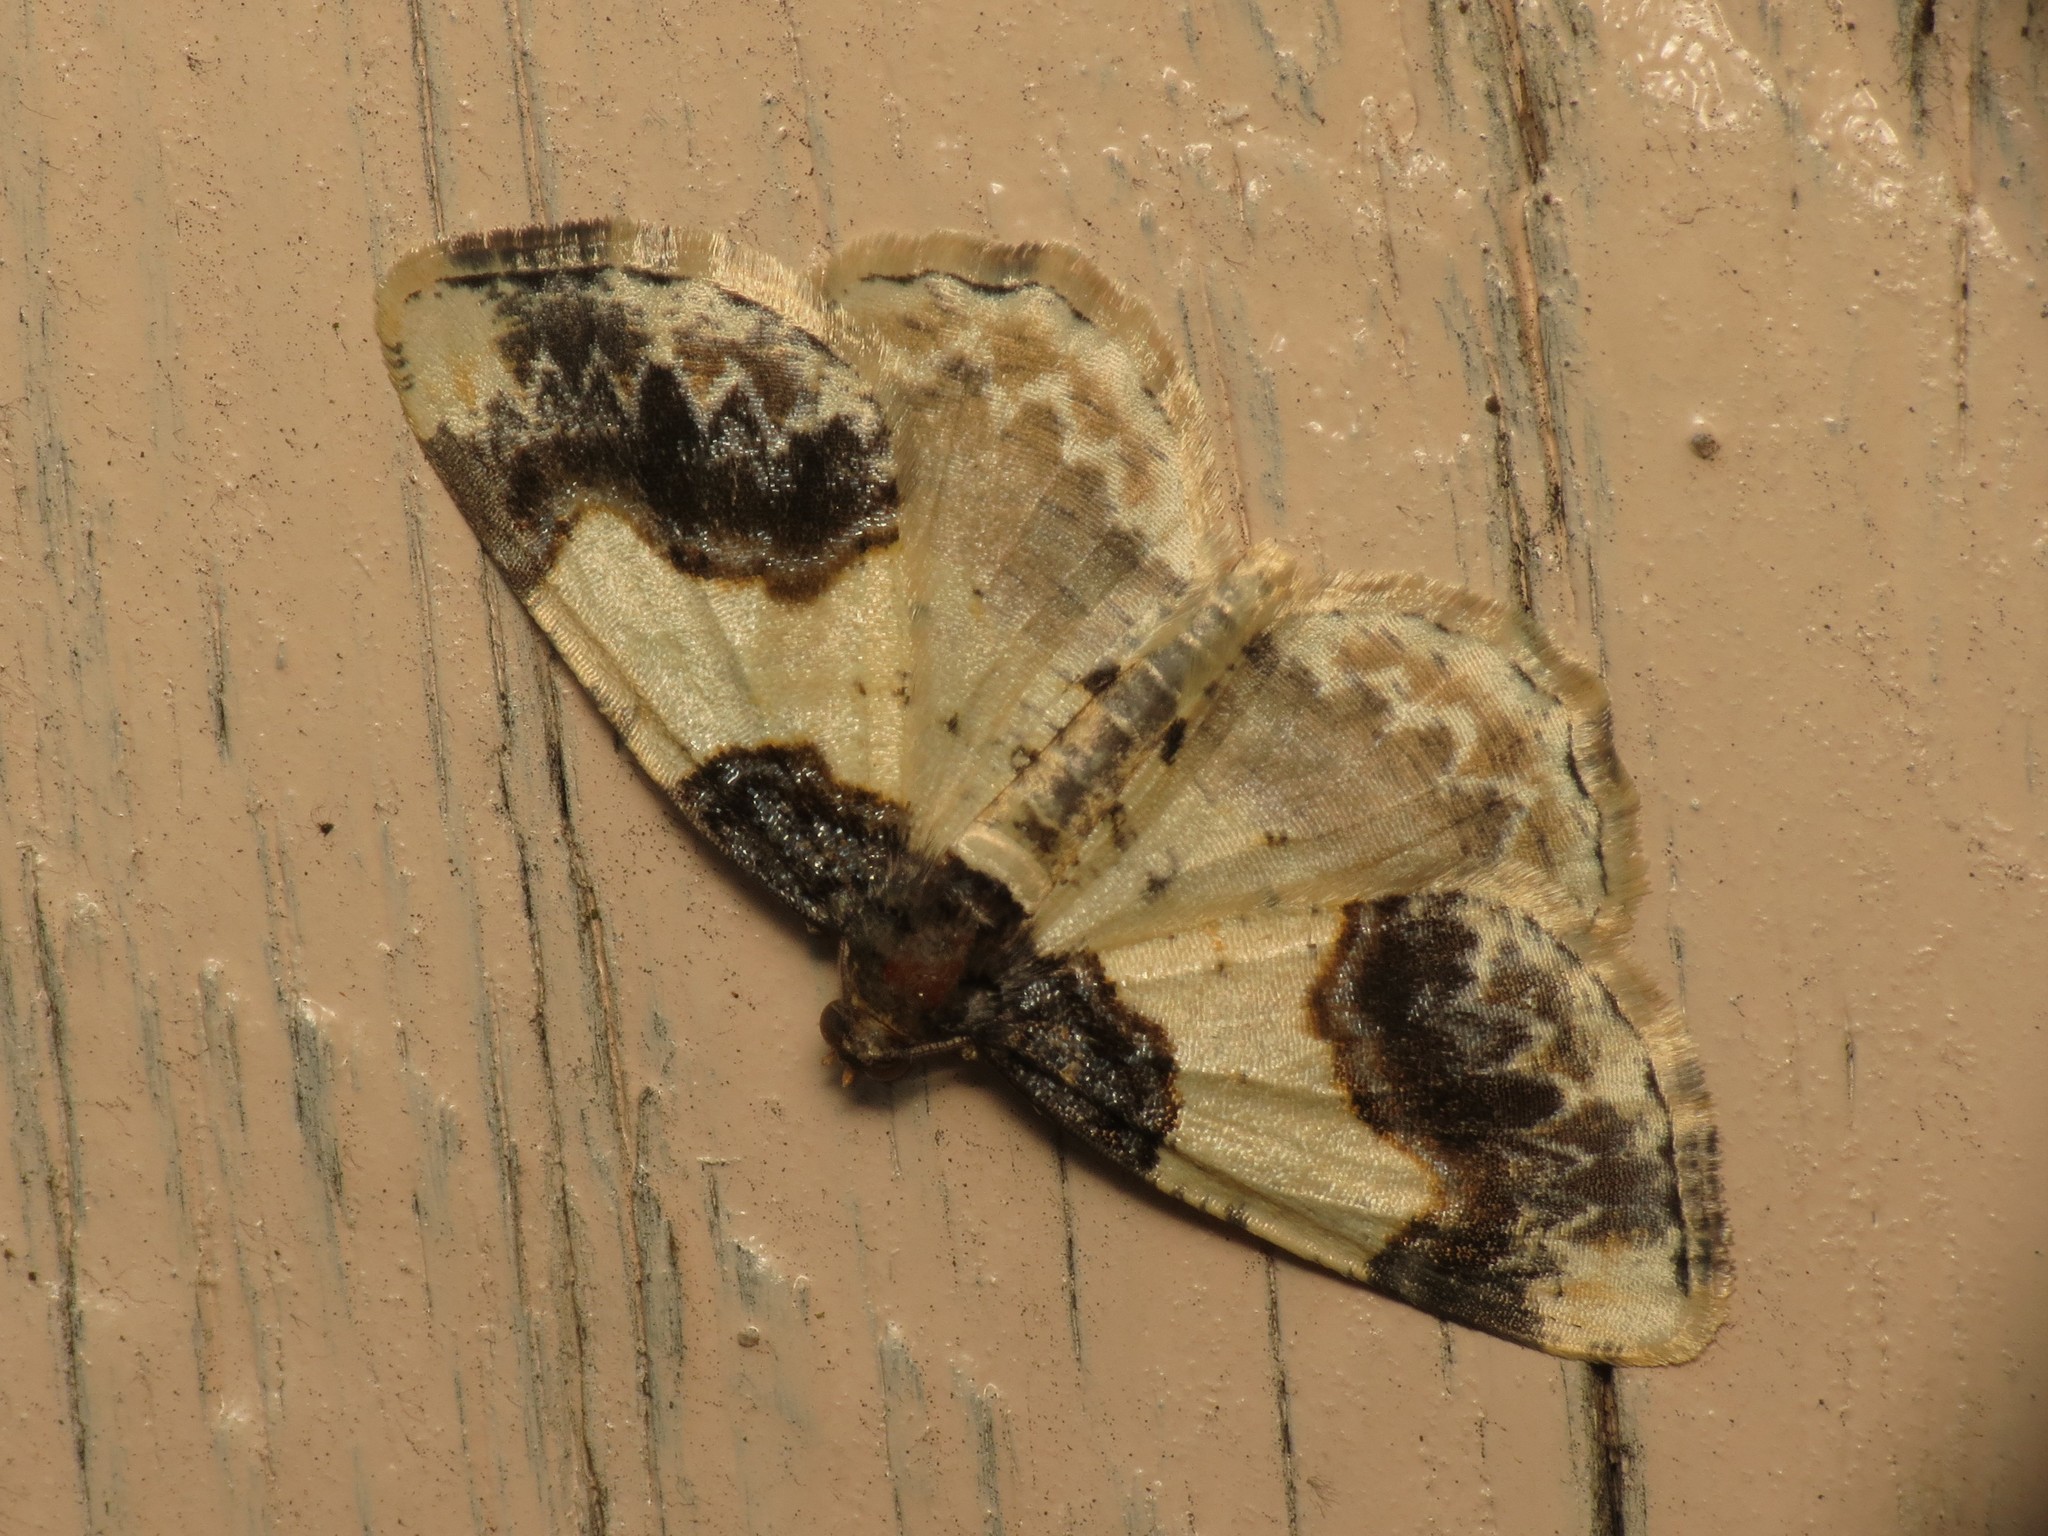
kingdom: Animalia
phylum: Arthropoda
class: Insecta
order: Lepidoptera
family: Geometridae
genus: Ligdia
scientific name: Ligdia adustata
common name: Scorched carpet
